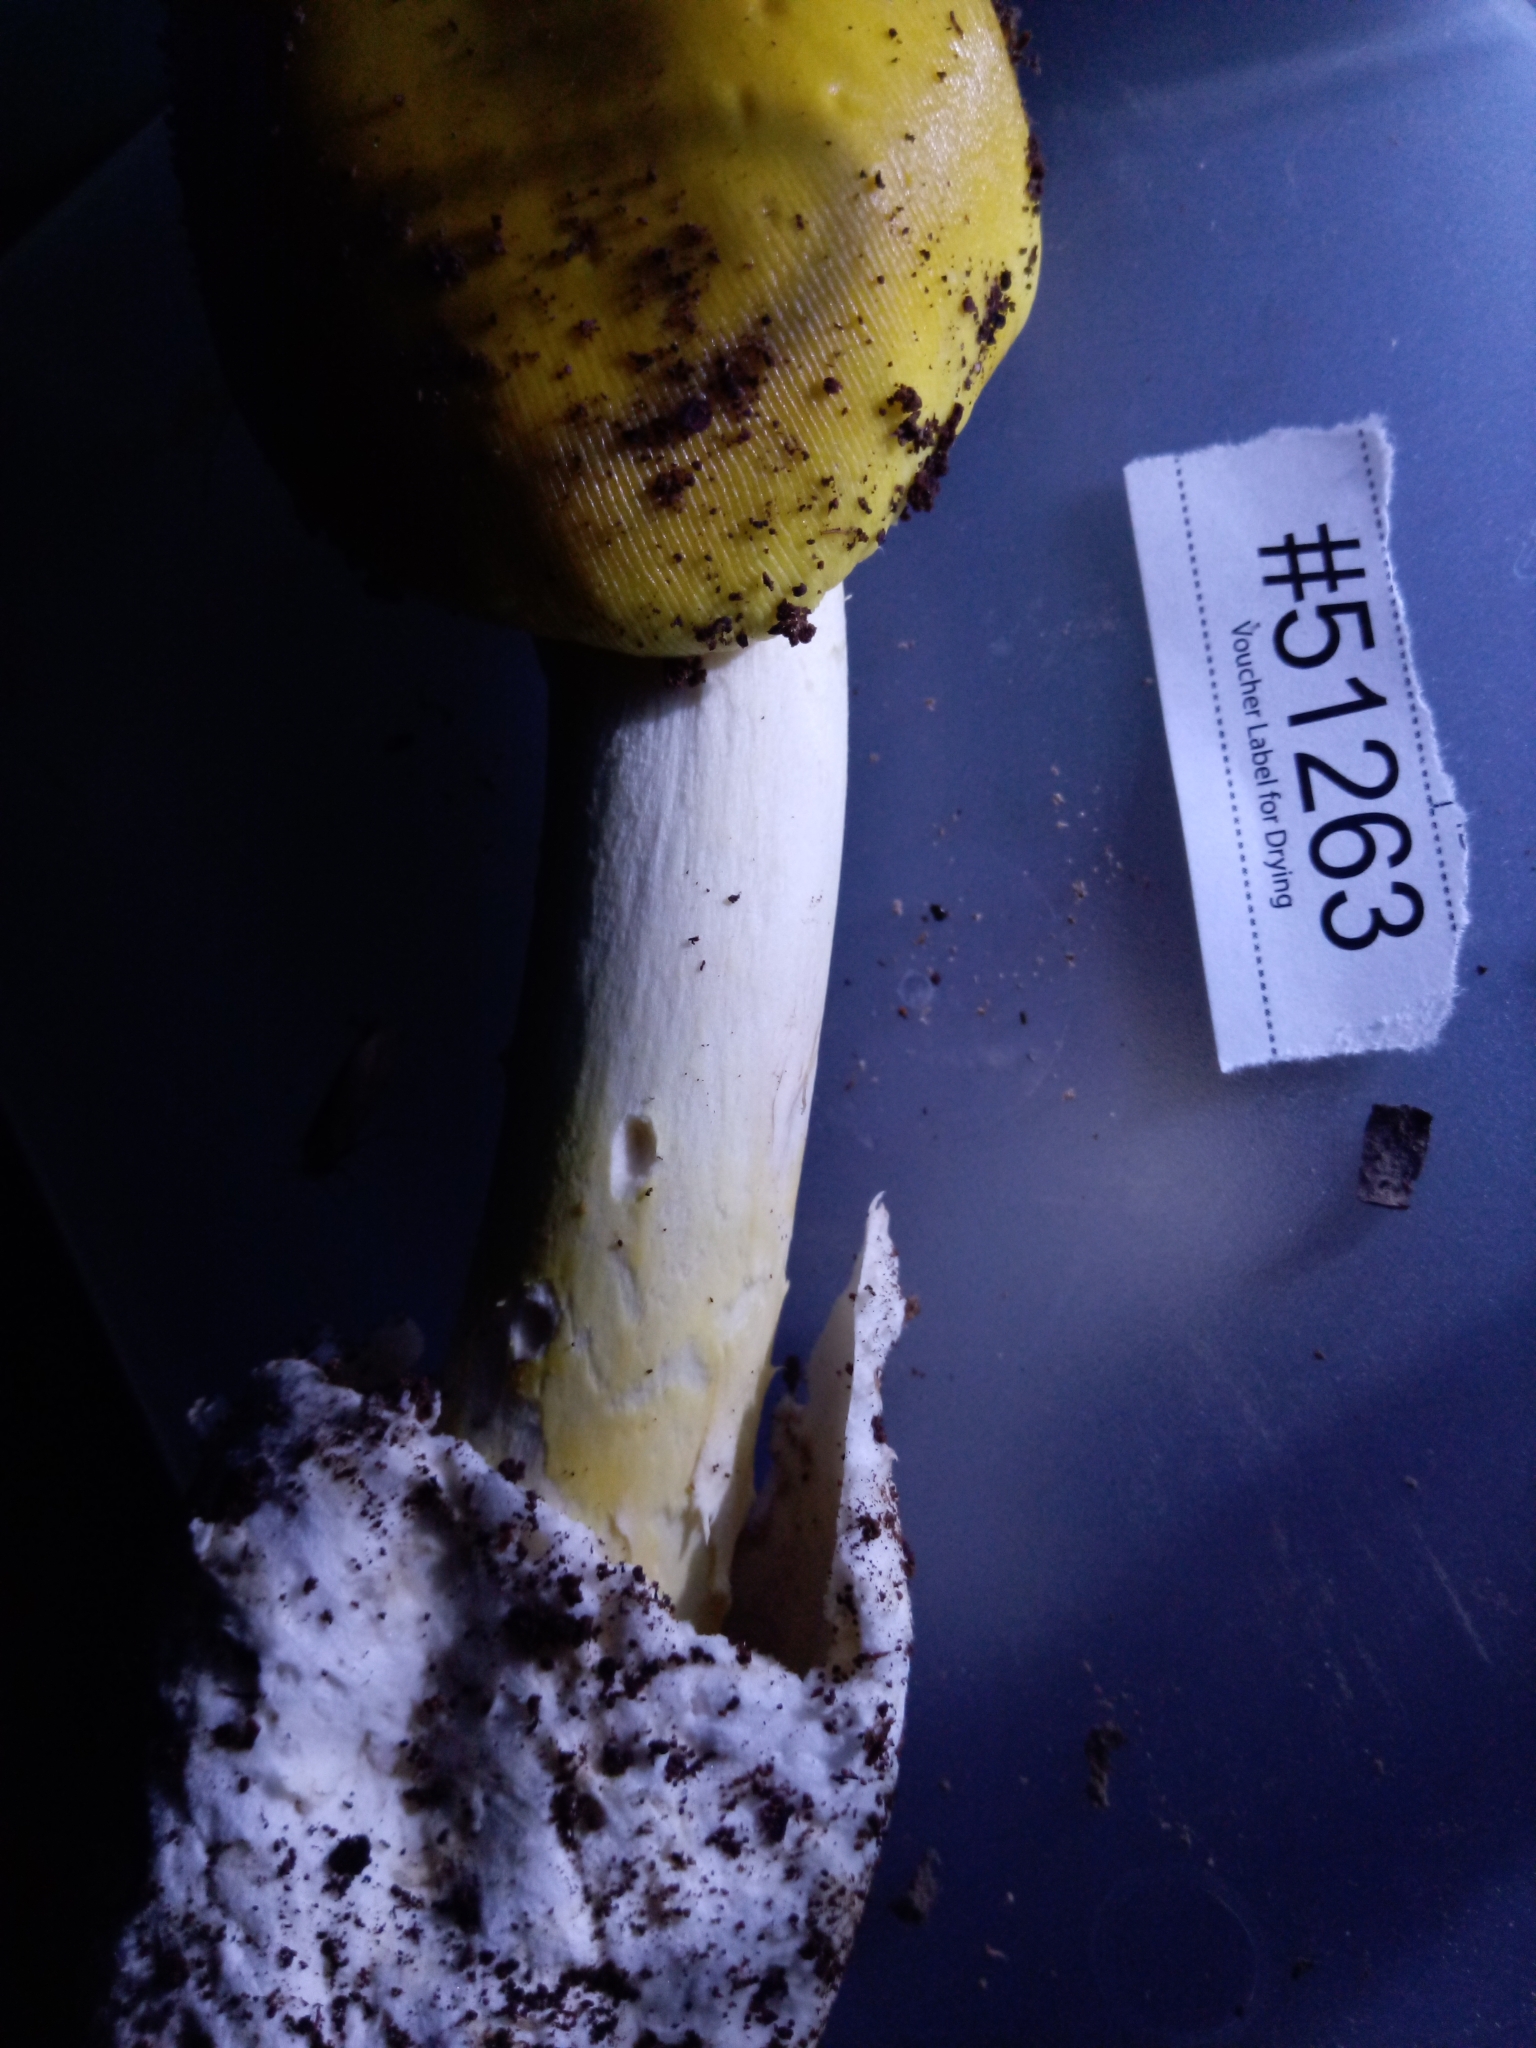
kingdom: Fungi
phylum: Basidiomycota
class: Agaricomycetes
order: Agaricales
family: Amanitaceae
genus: Amanita
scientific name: Amanita arkansana
